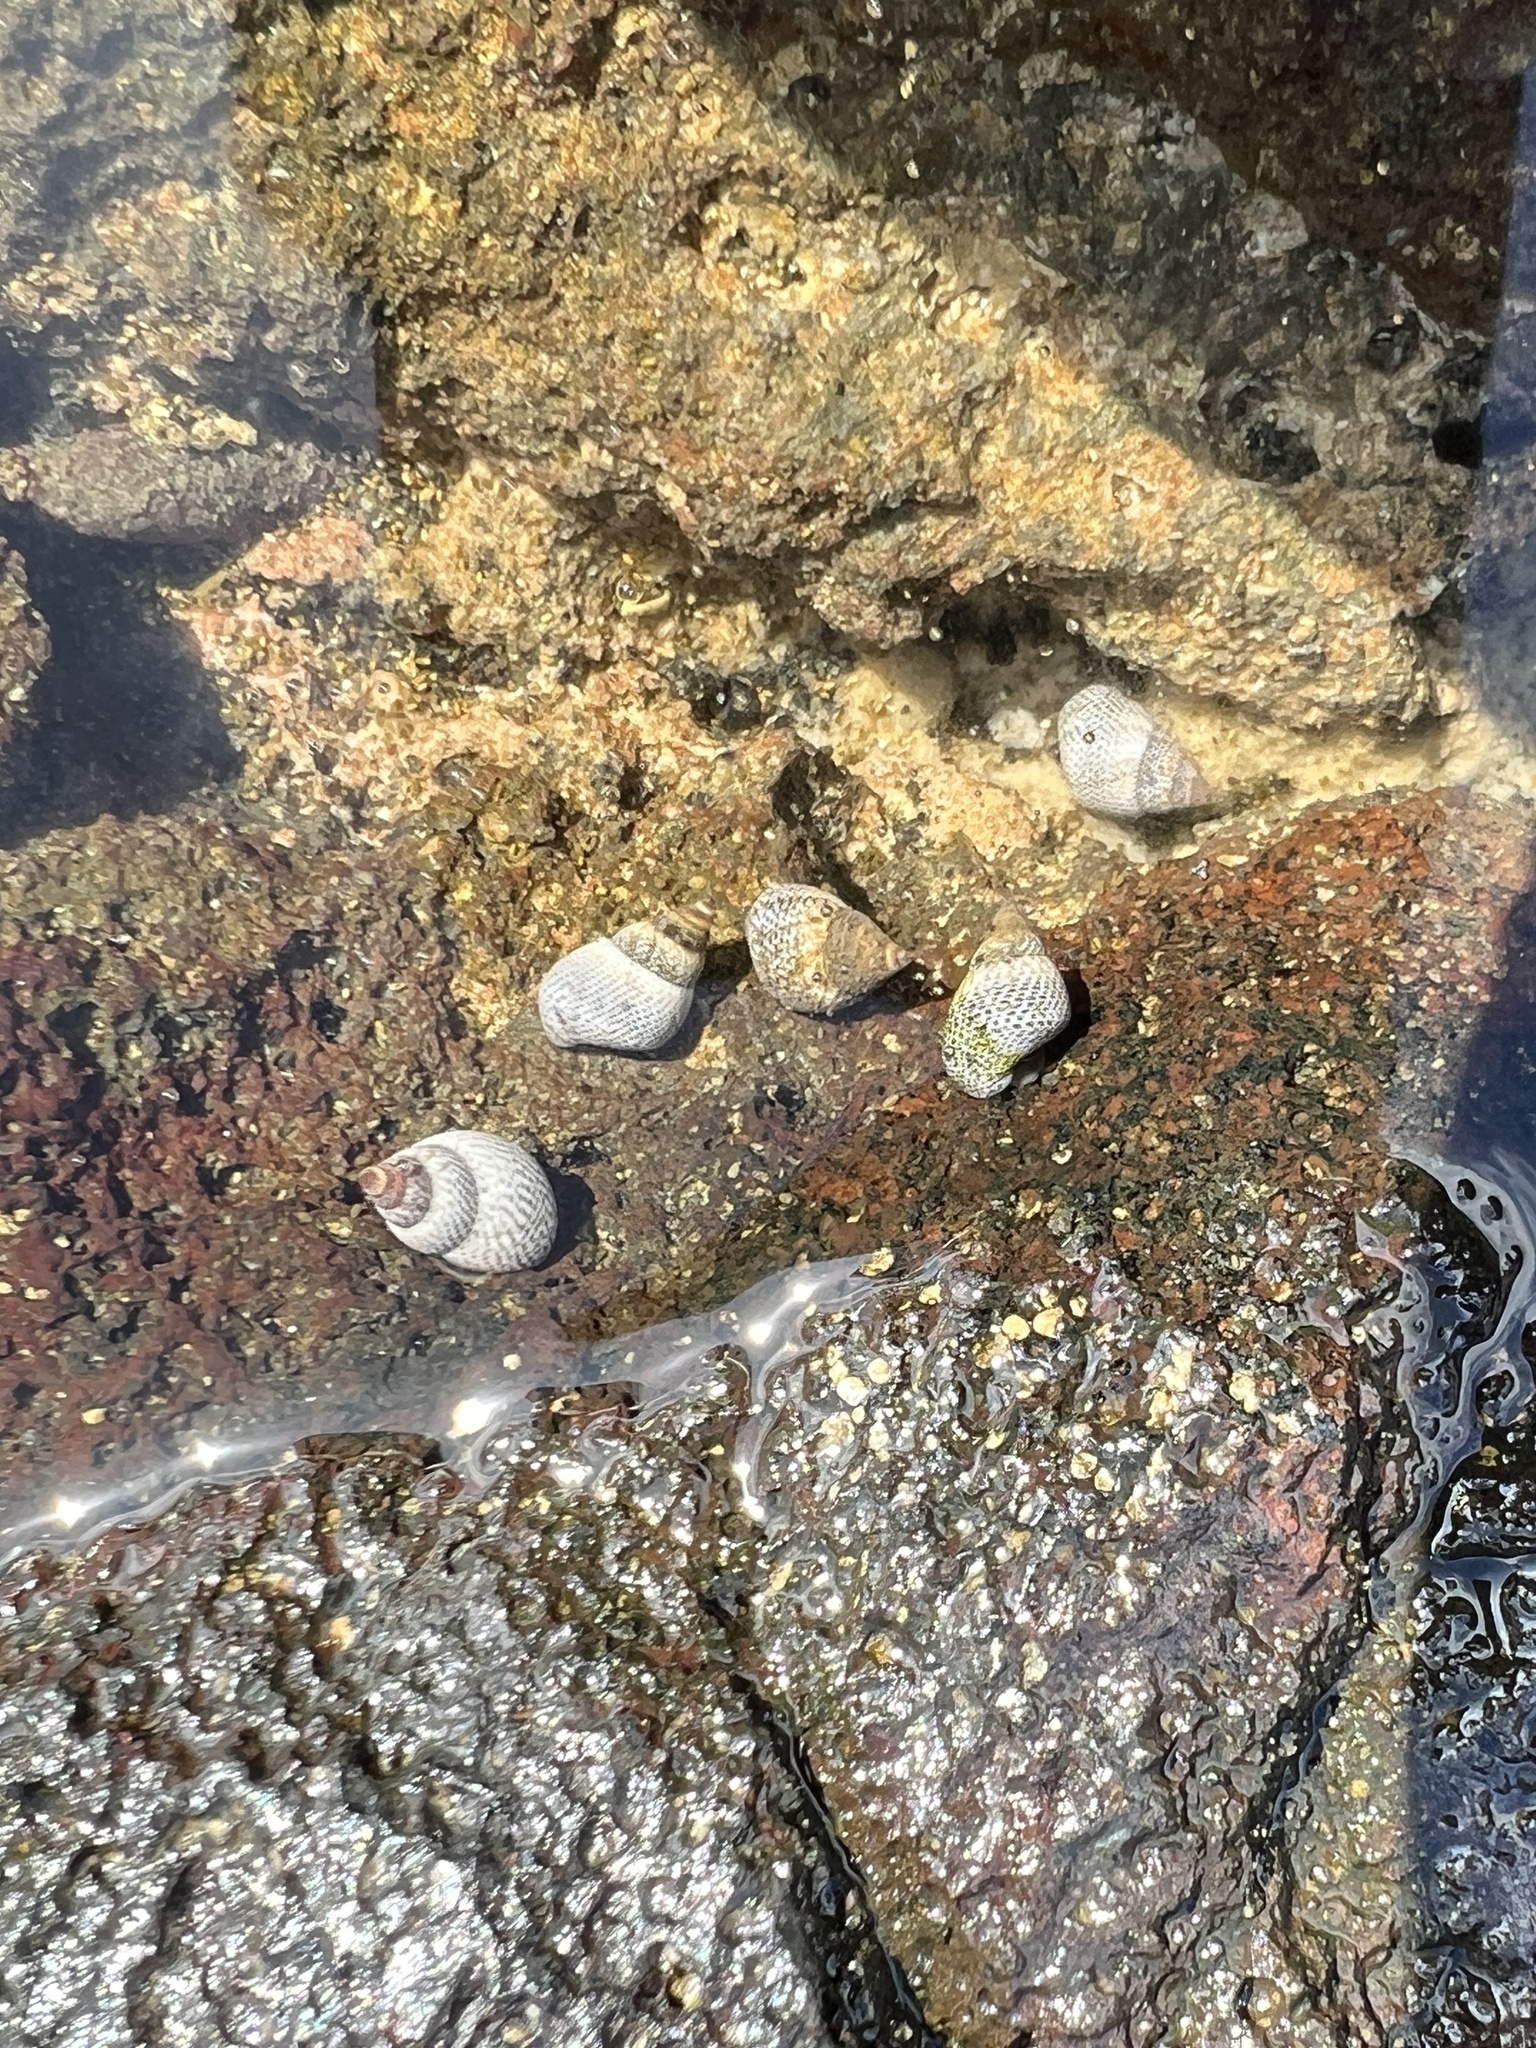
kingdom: Animalia
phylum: Mollusca
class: Gastropoda
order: Littorinimorpha
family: Littorinidae
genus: Littoraria
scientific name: Littoraria pintado
